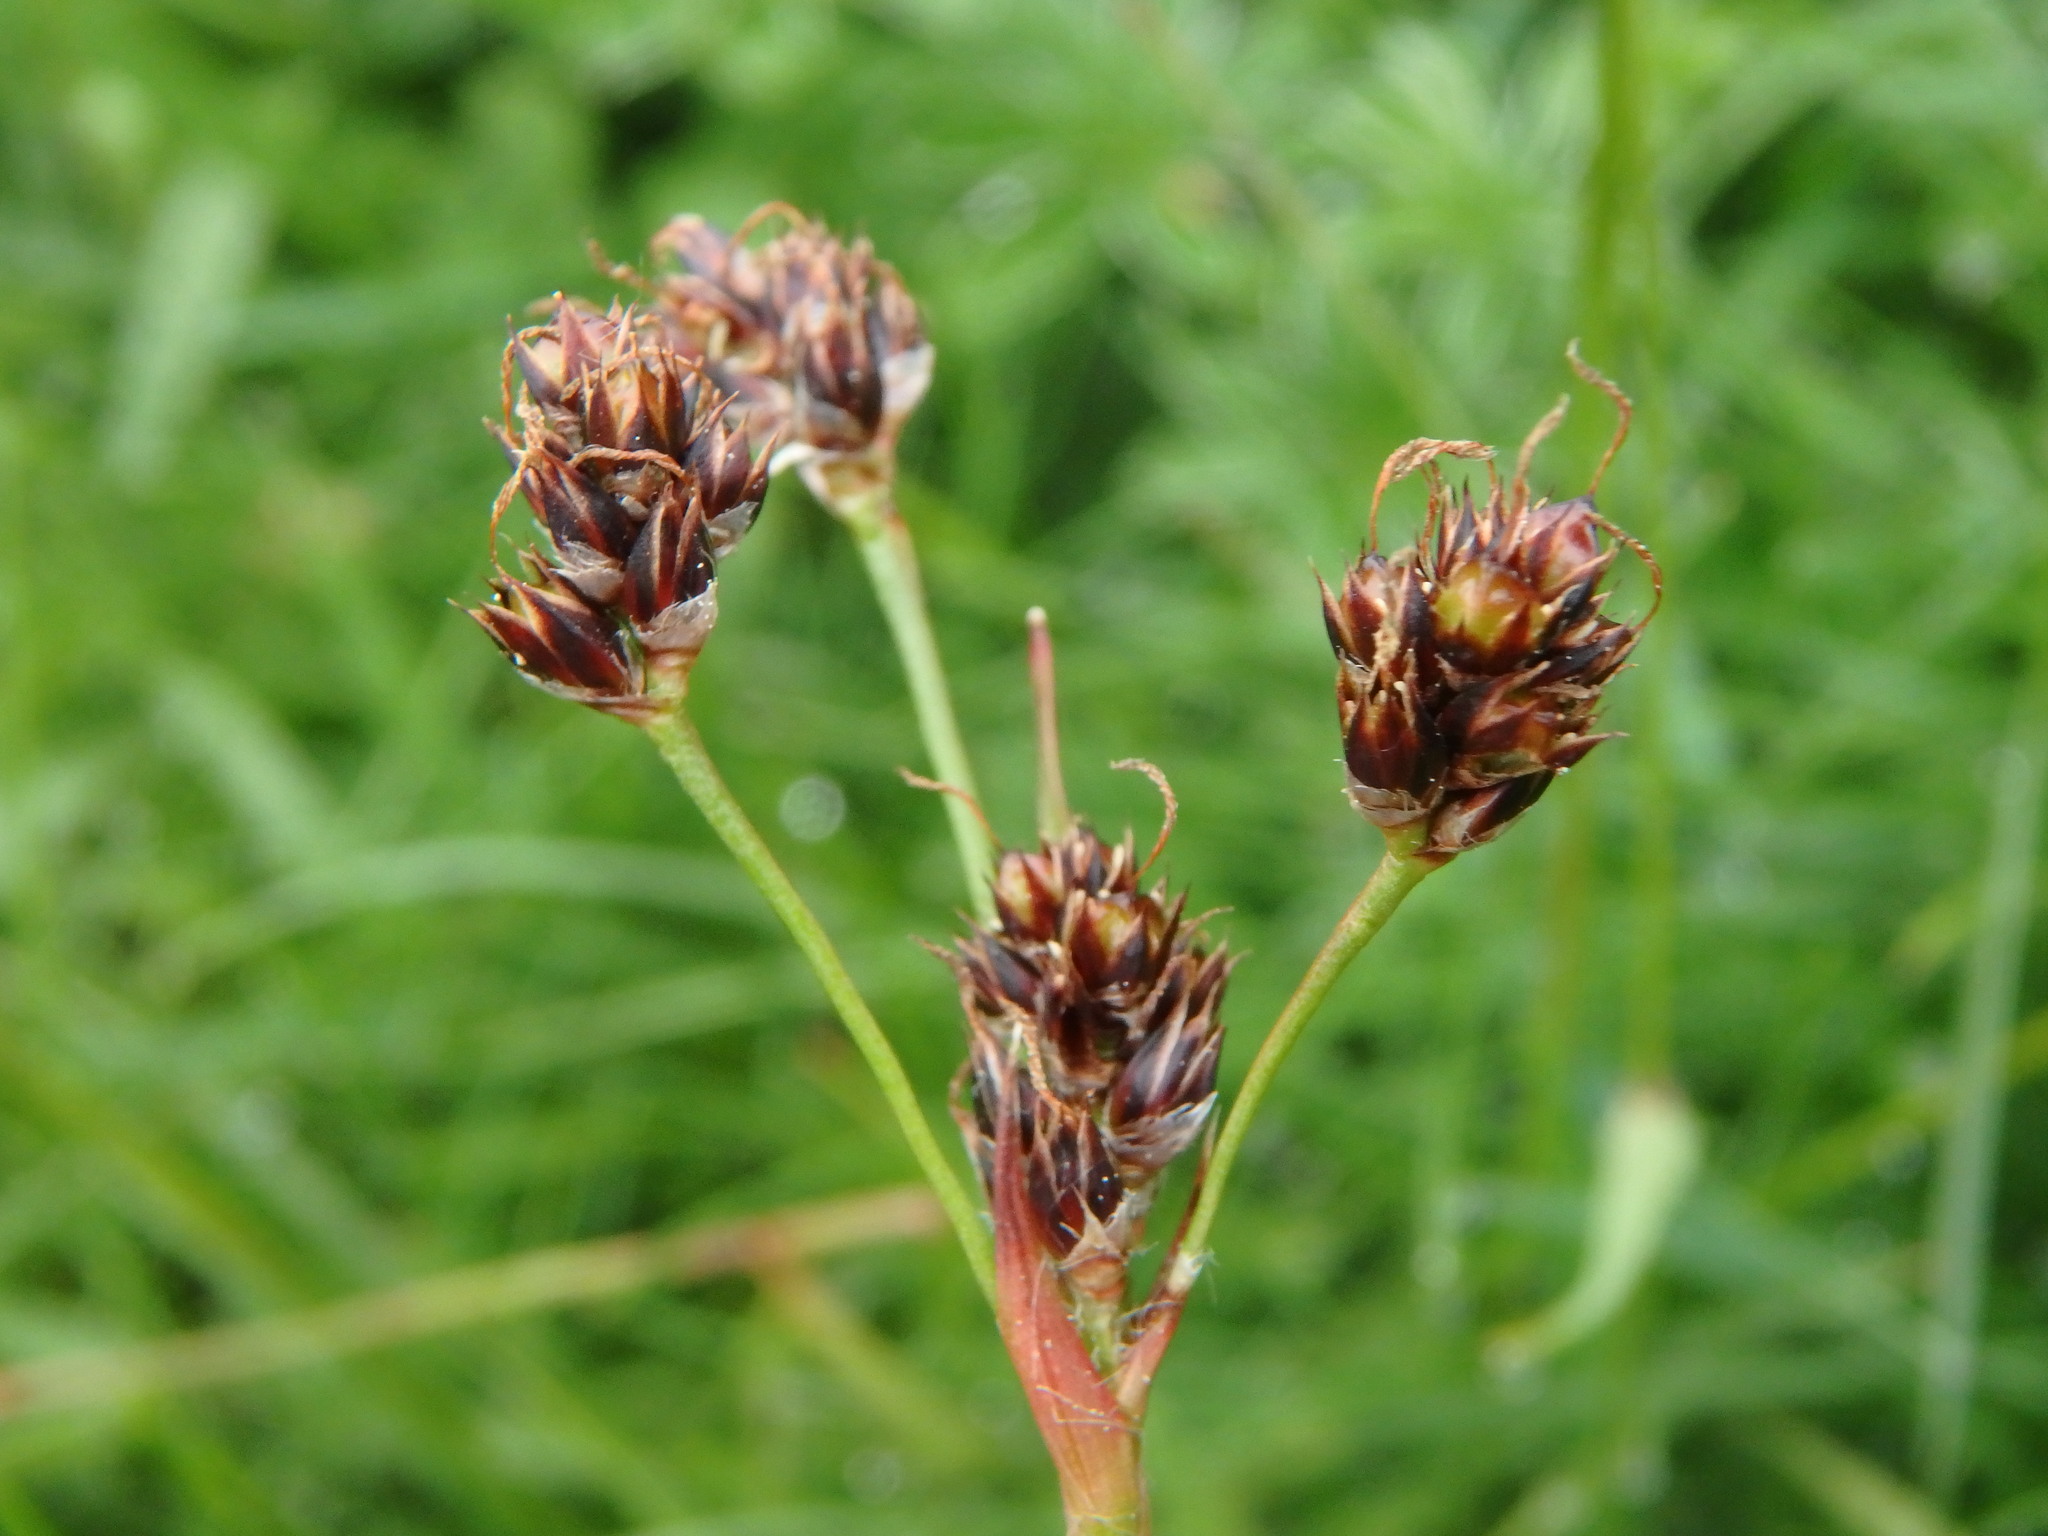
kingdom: Plantae
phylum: Tracheophyta
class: Liliopsida
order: Poales
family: Juncaceae
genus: Luzula
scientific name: Luzula campestris
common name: Field wood-rush
